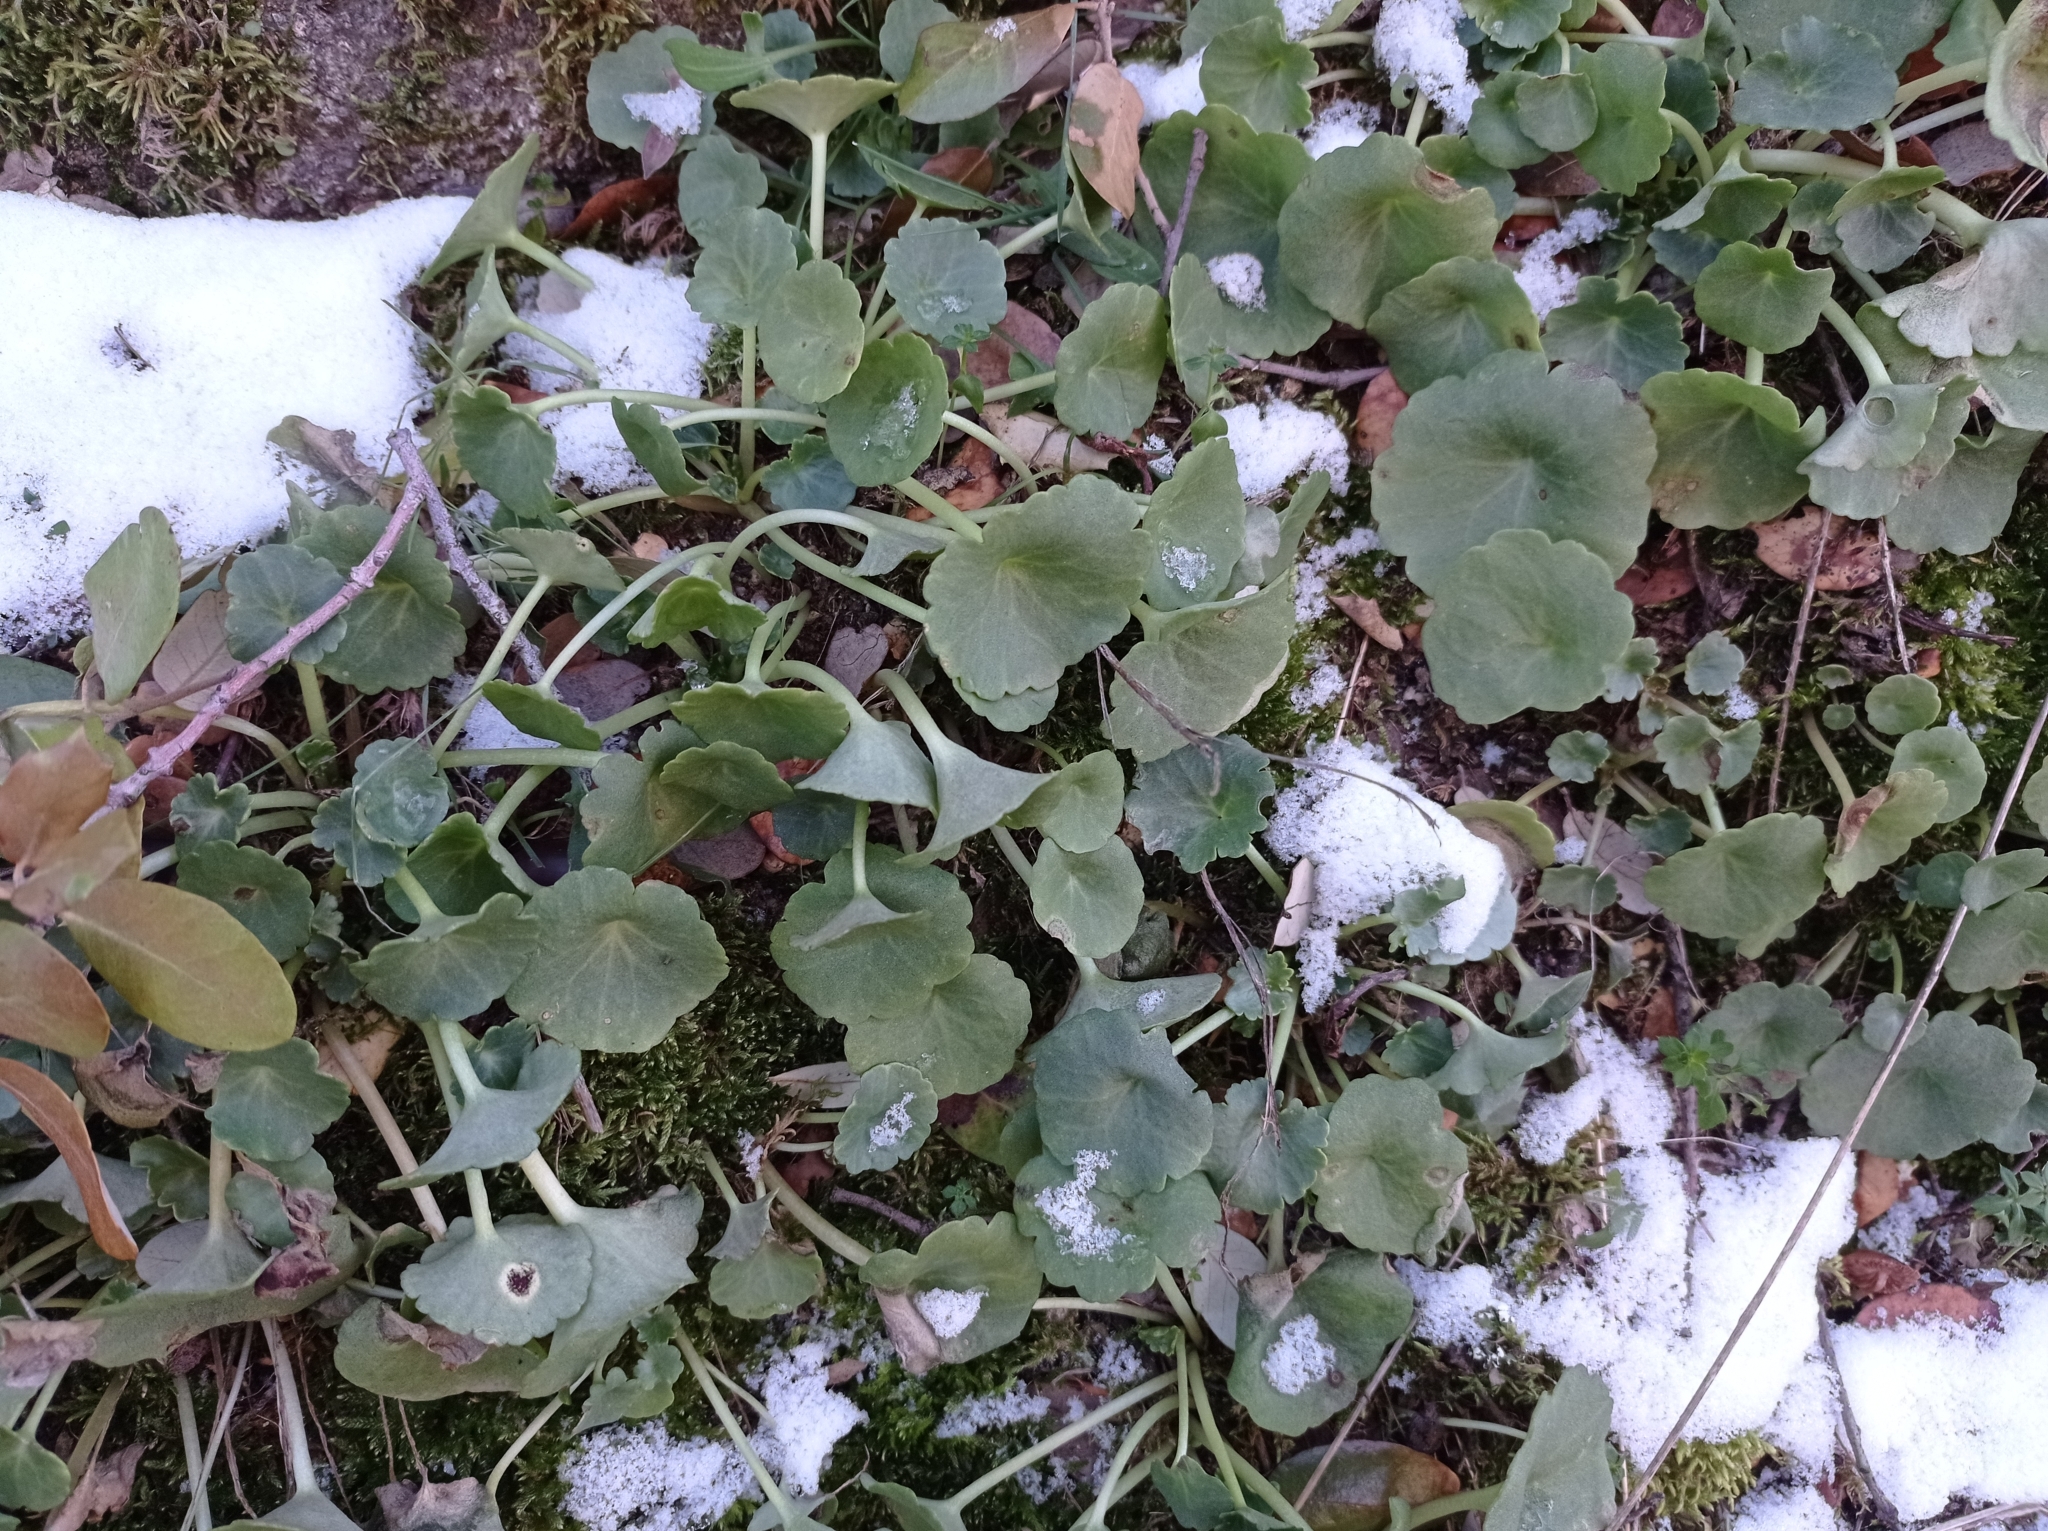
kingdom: Plantae
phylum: Tracheophyta
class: Magnoliopsida
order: Saxifragales
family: Crassulaceae
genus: Umbilicus
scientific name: Umbilicus rupestris
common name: Navelwort
